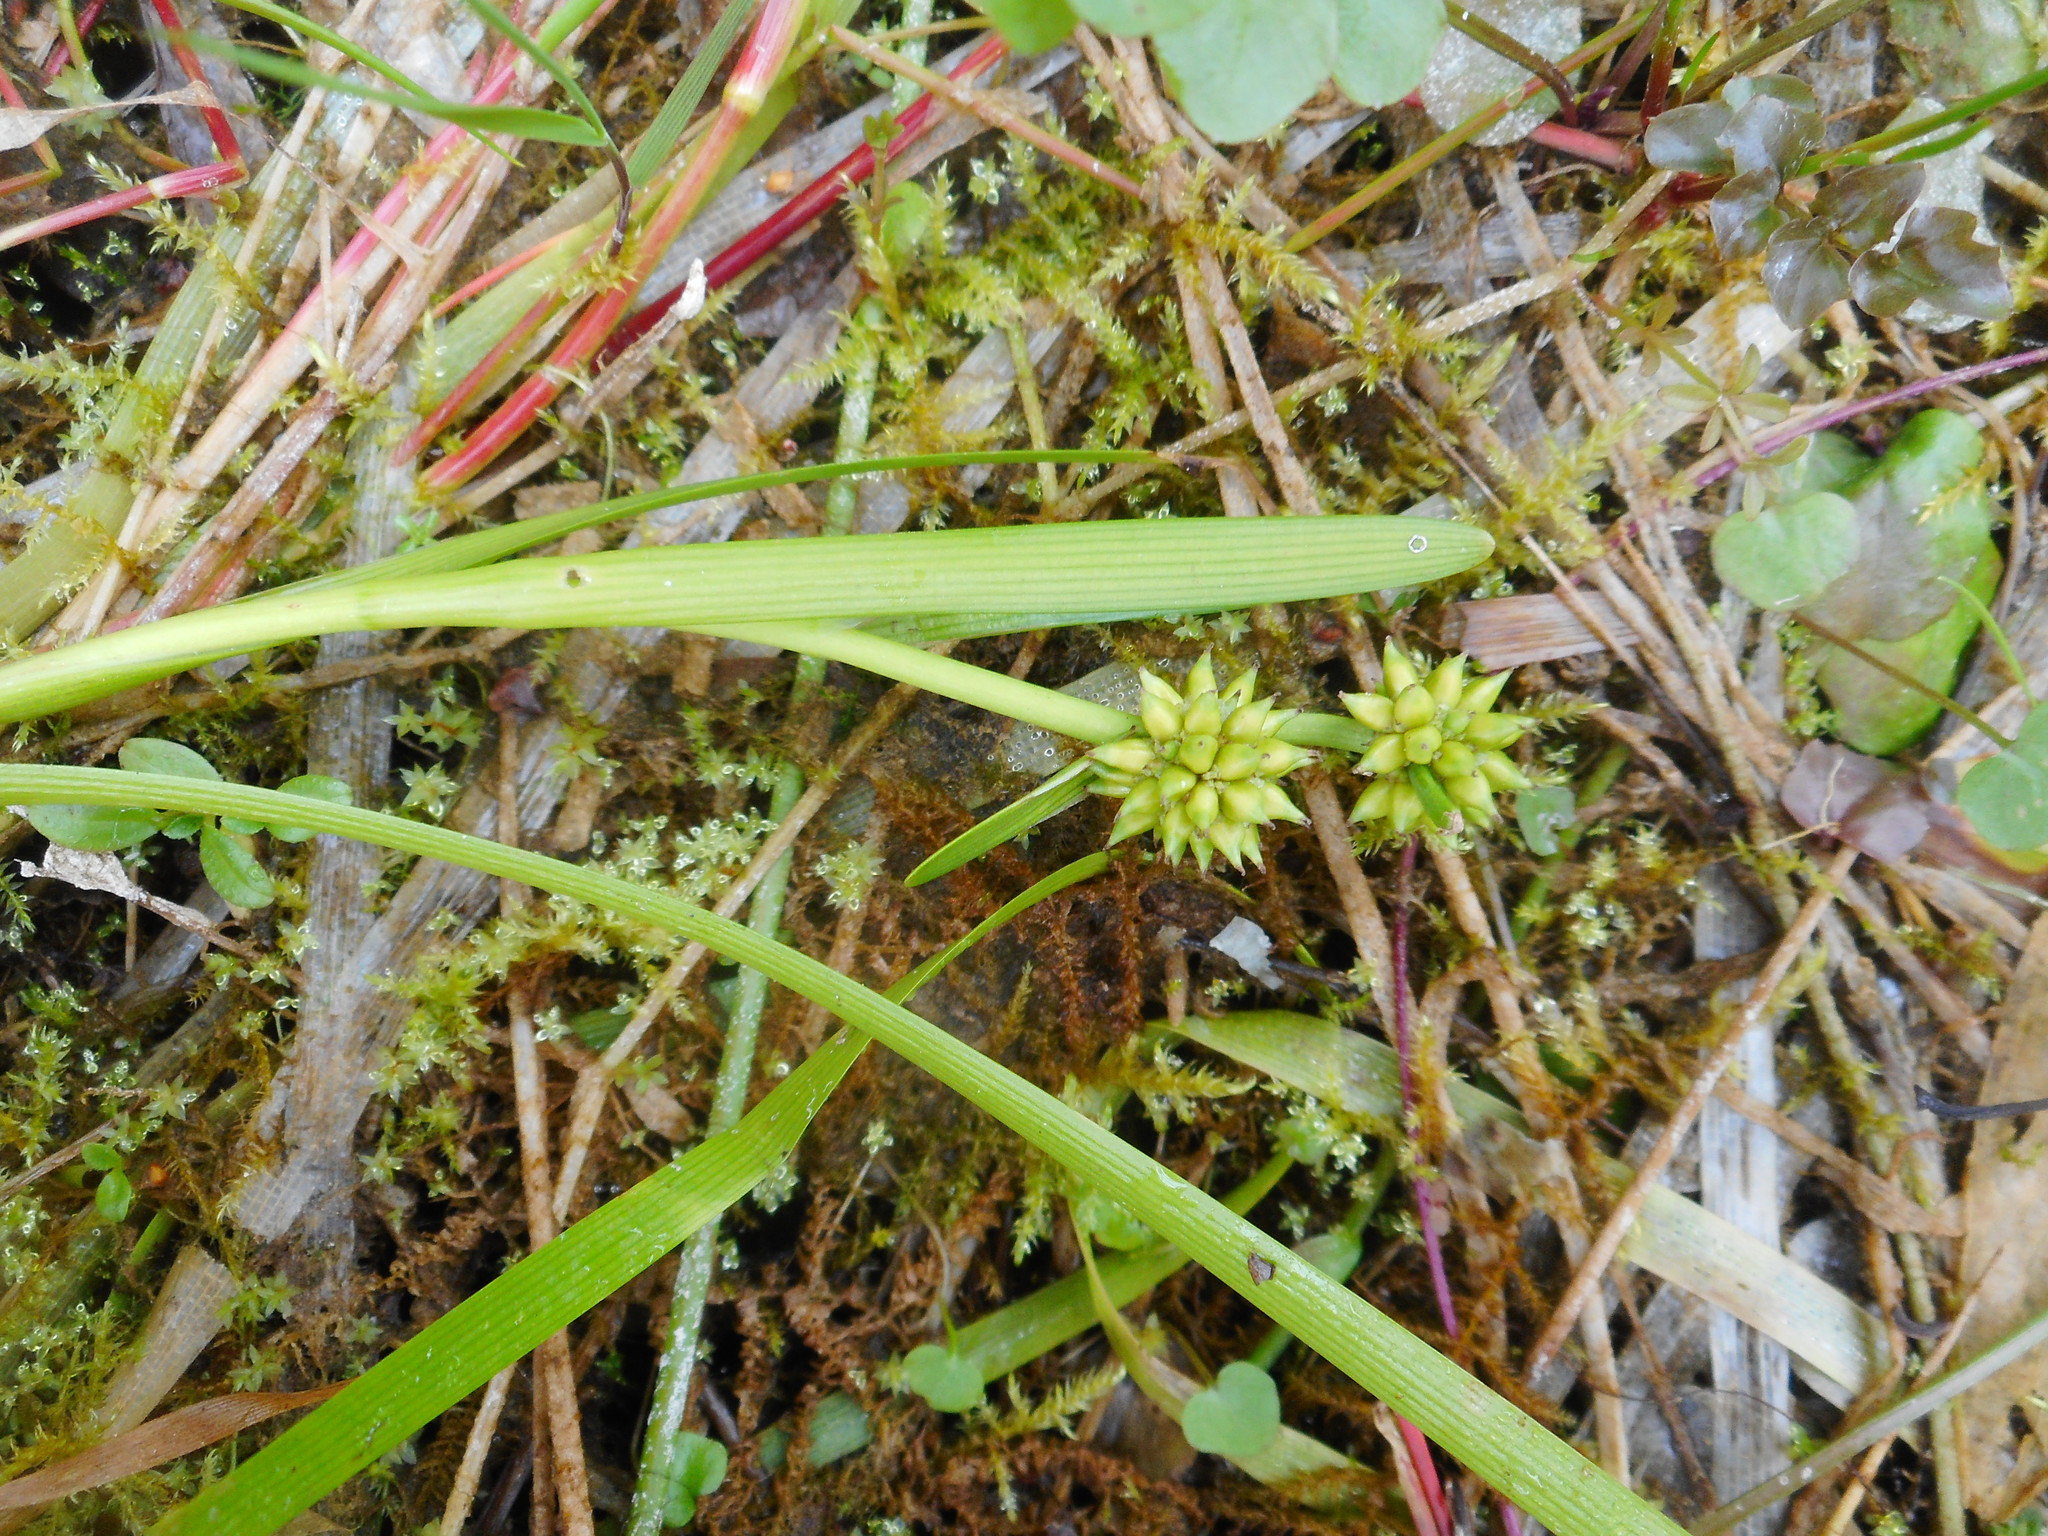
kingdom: Plantae
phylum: Tracheophyta
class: Liliopsida
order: Poales
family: Typhaceae
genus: Sparganium
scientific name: Sparganium natans
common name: Least bur-reed
